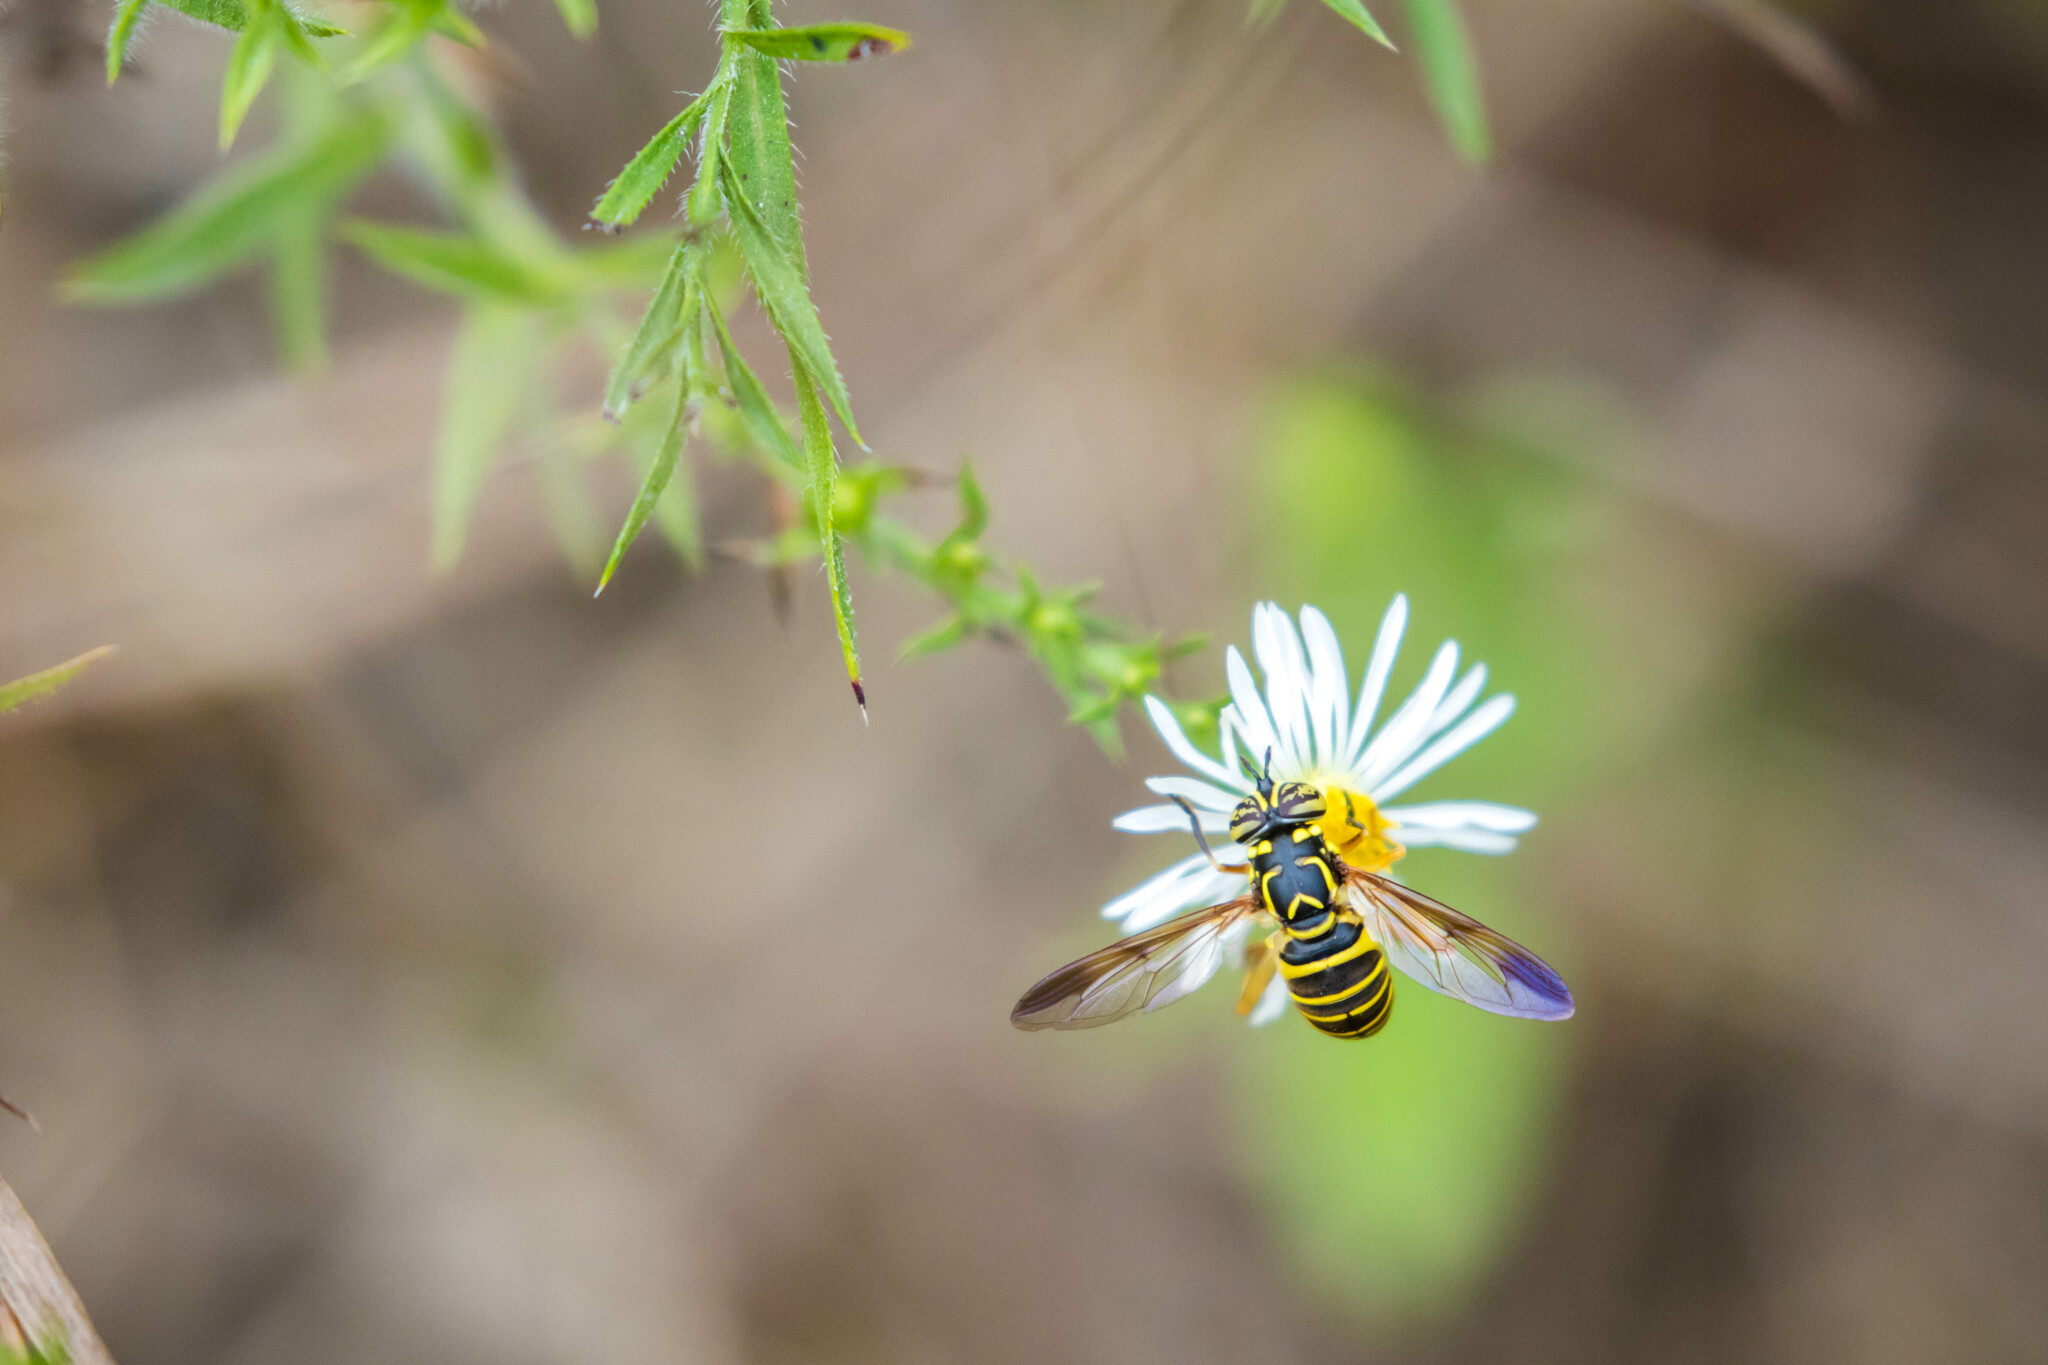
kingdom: Animalia
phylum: Arthropoda
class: Insecta
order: Diptera
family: Syrphidae
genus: Spilomyia
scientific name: Spilomyia longicornis
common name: Eastern hornet fly
